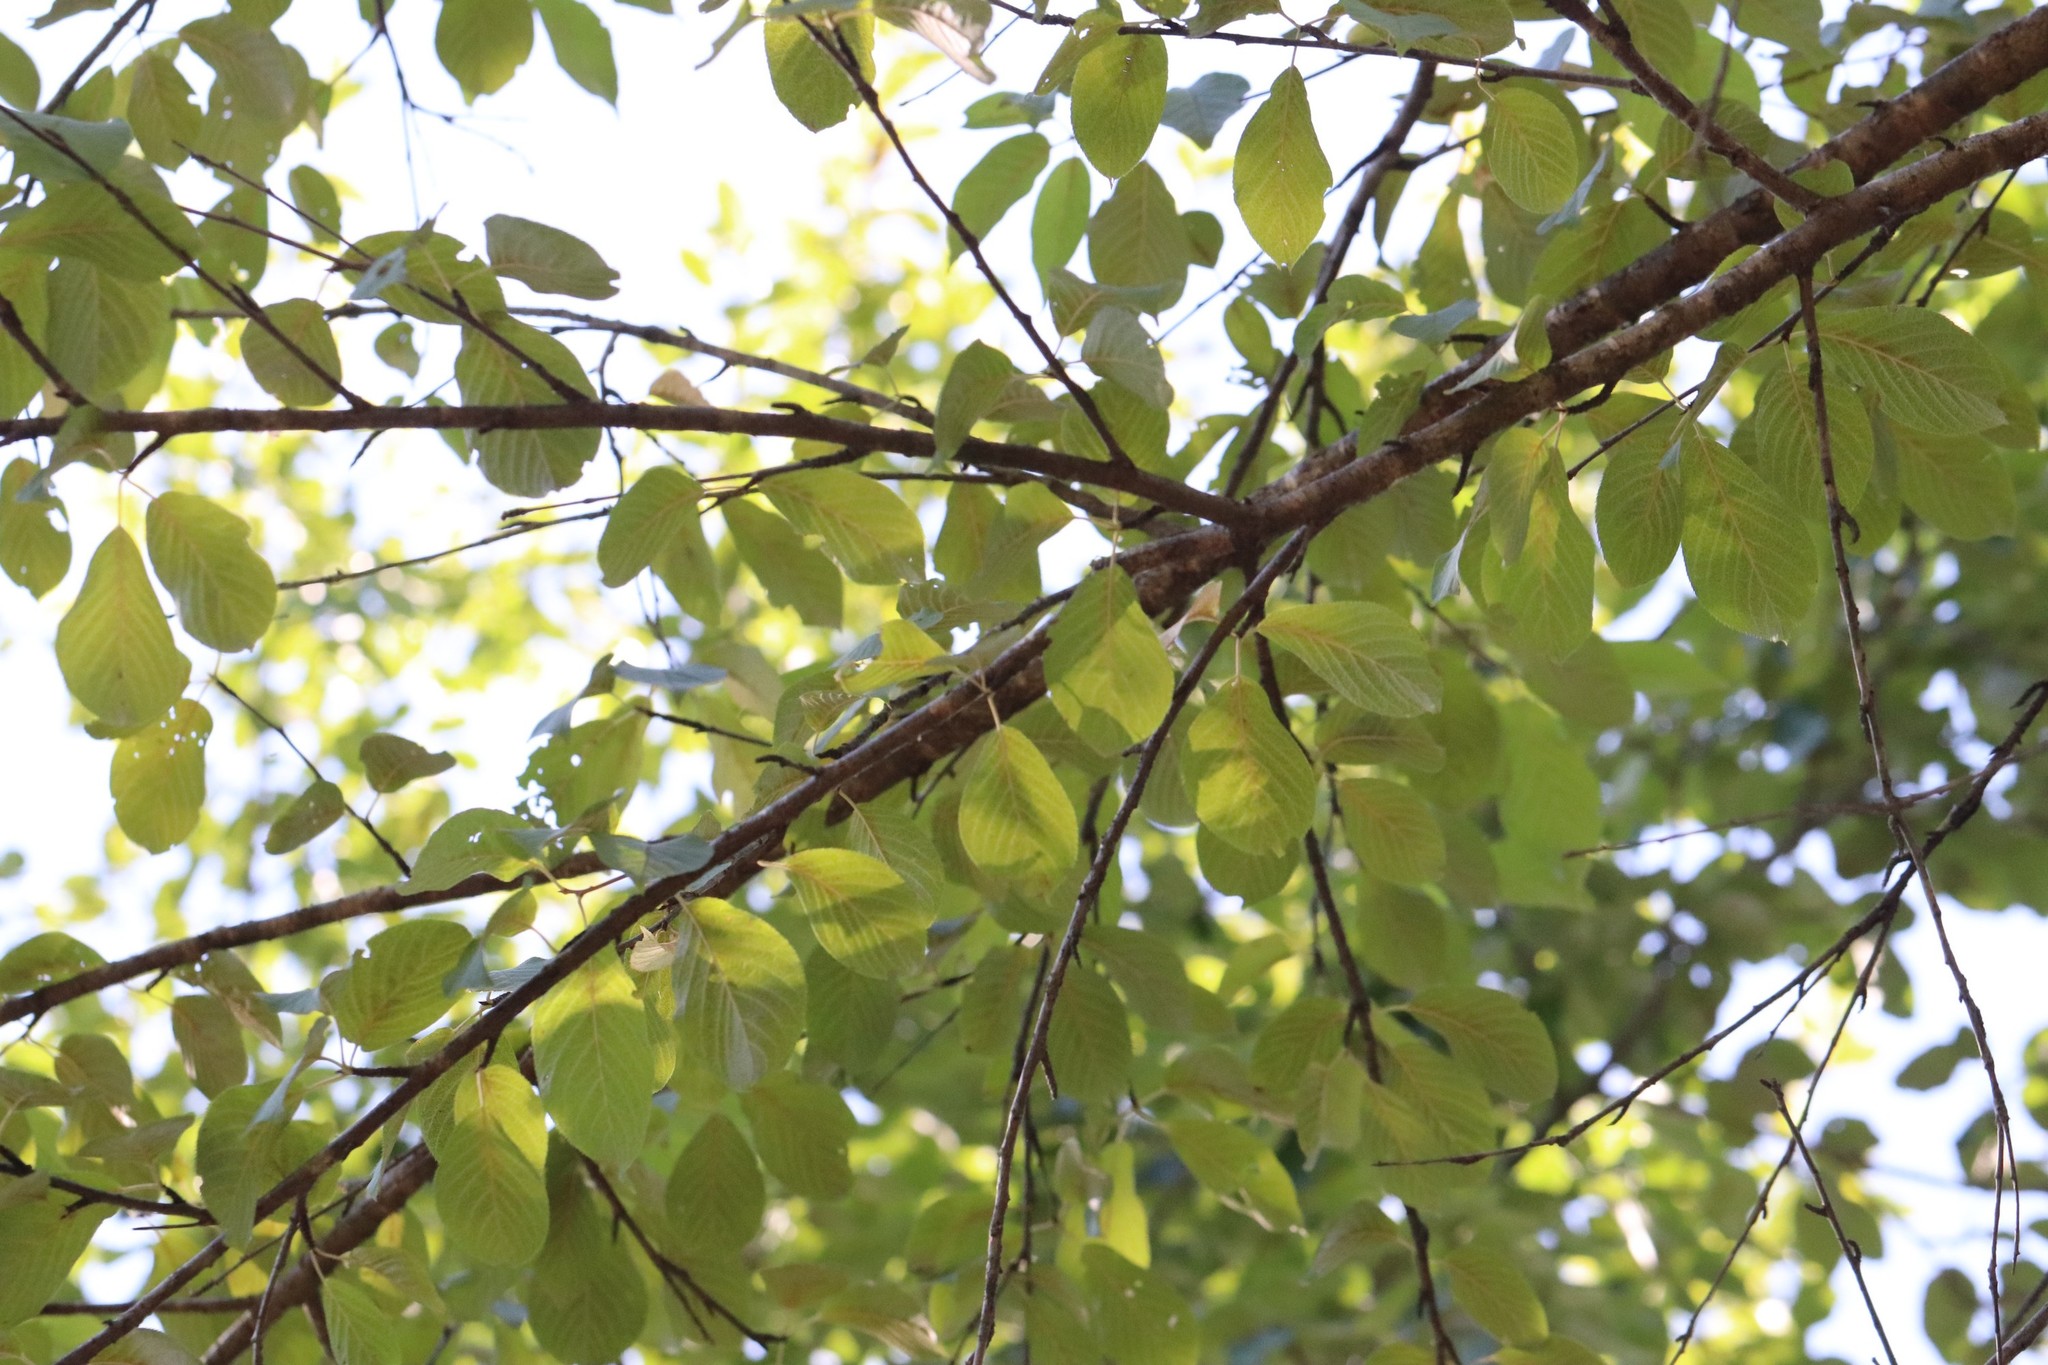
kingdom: Plantae
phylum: Tracheophyta
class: Magnoliopsida
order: Rosales
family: Rosaceae
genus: Prunus
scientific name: Prunus glandulifolia
